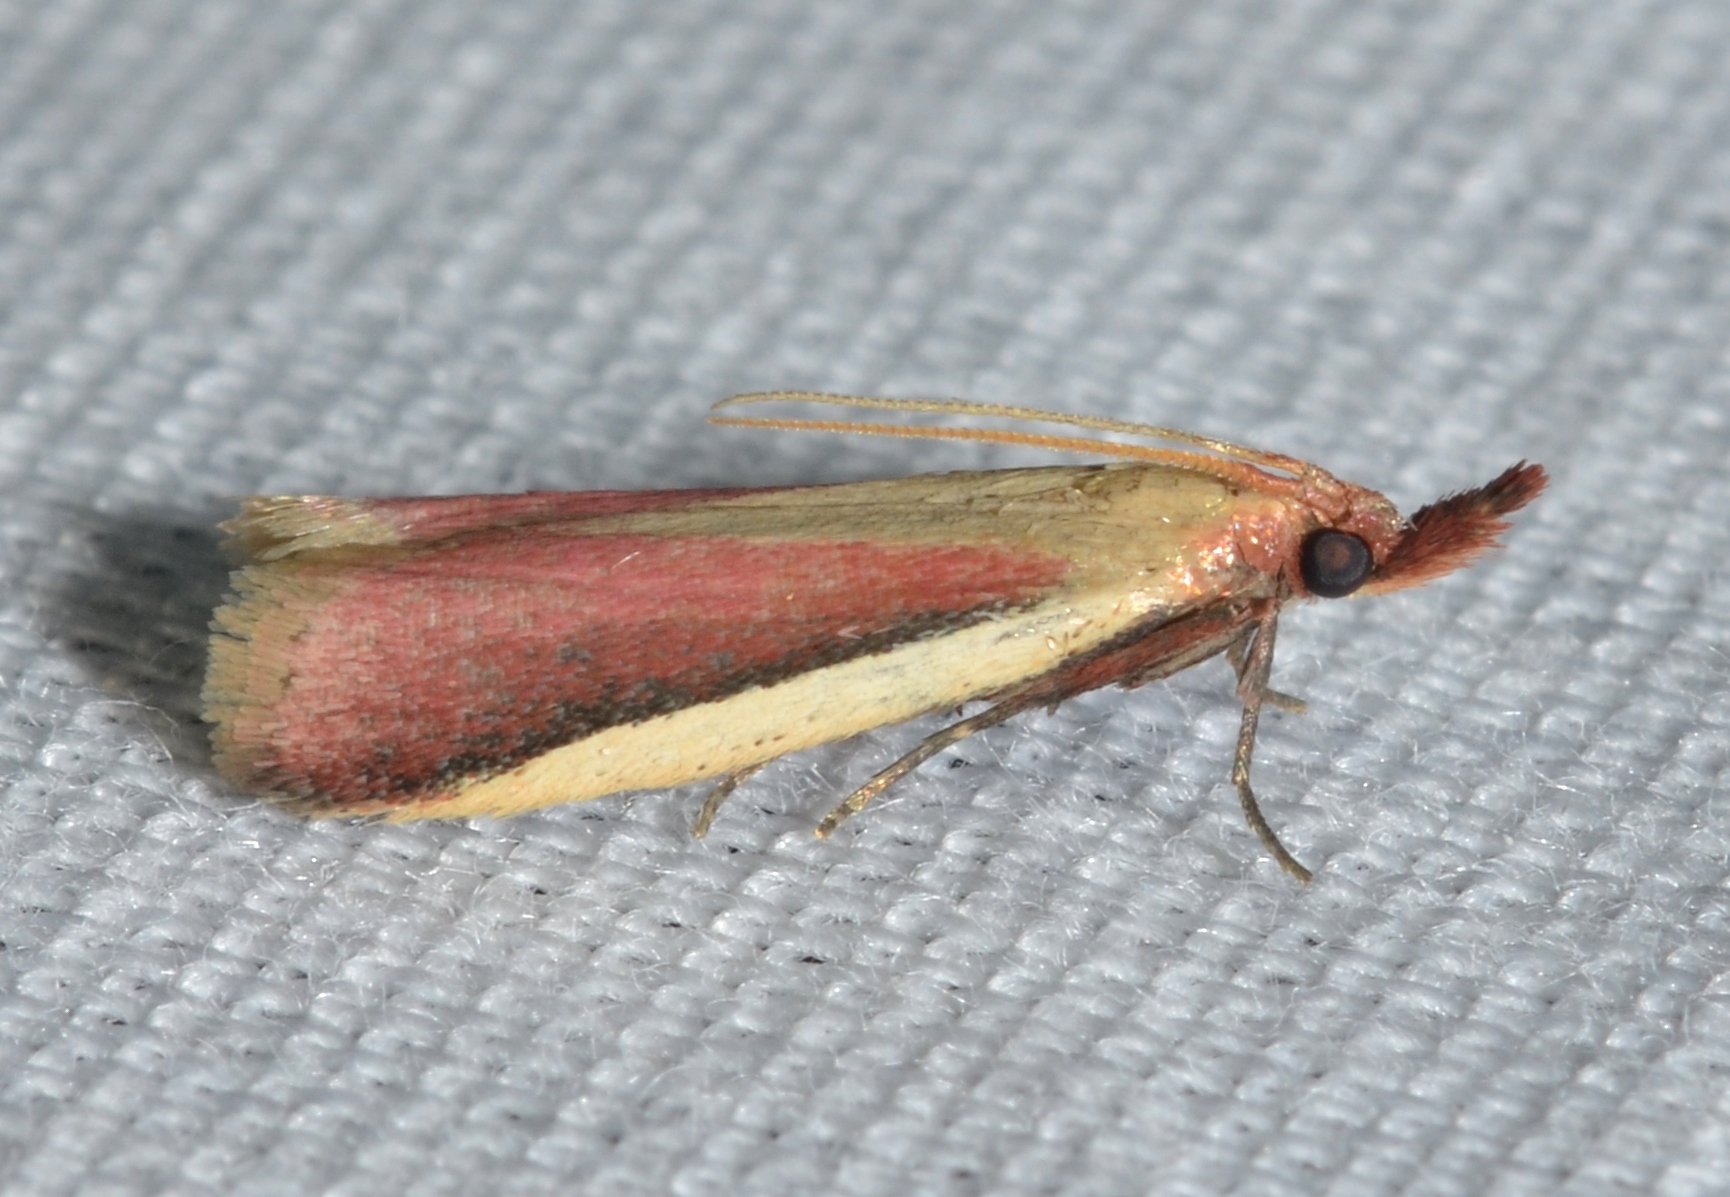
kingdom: Animalia
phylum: Arthropoda
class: Insecta
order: Lepidoptera
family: Pyralidae
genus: Peoria
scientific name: Peoria approximella
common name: Carmine snout
